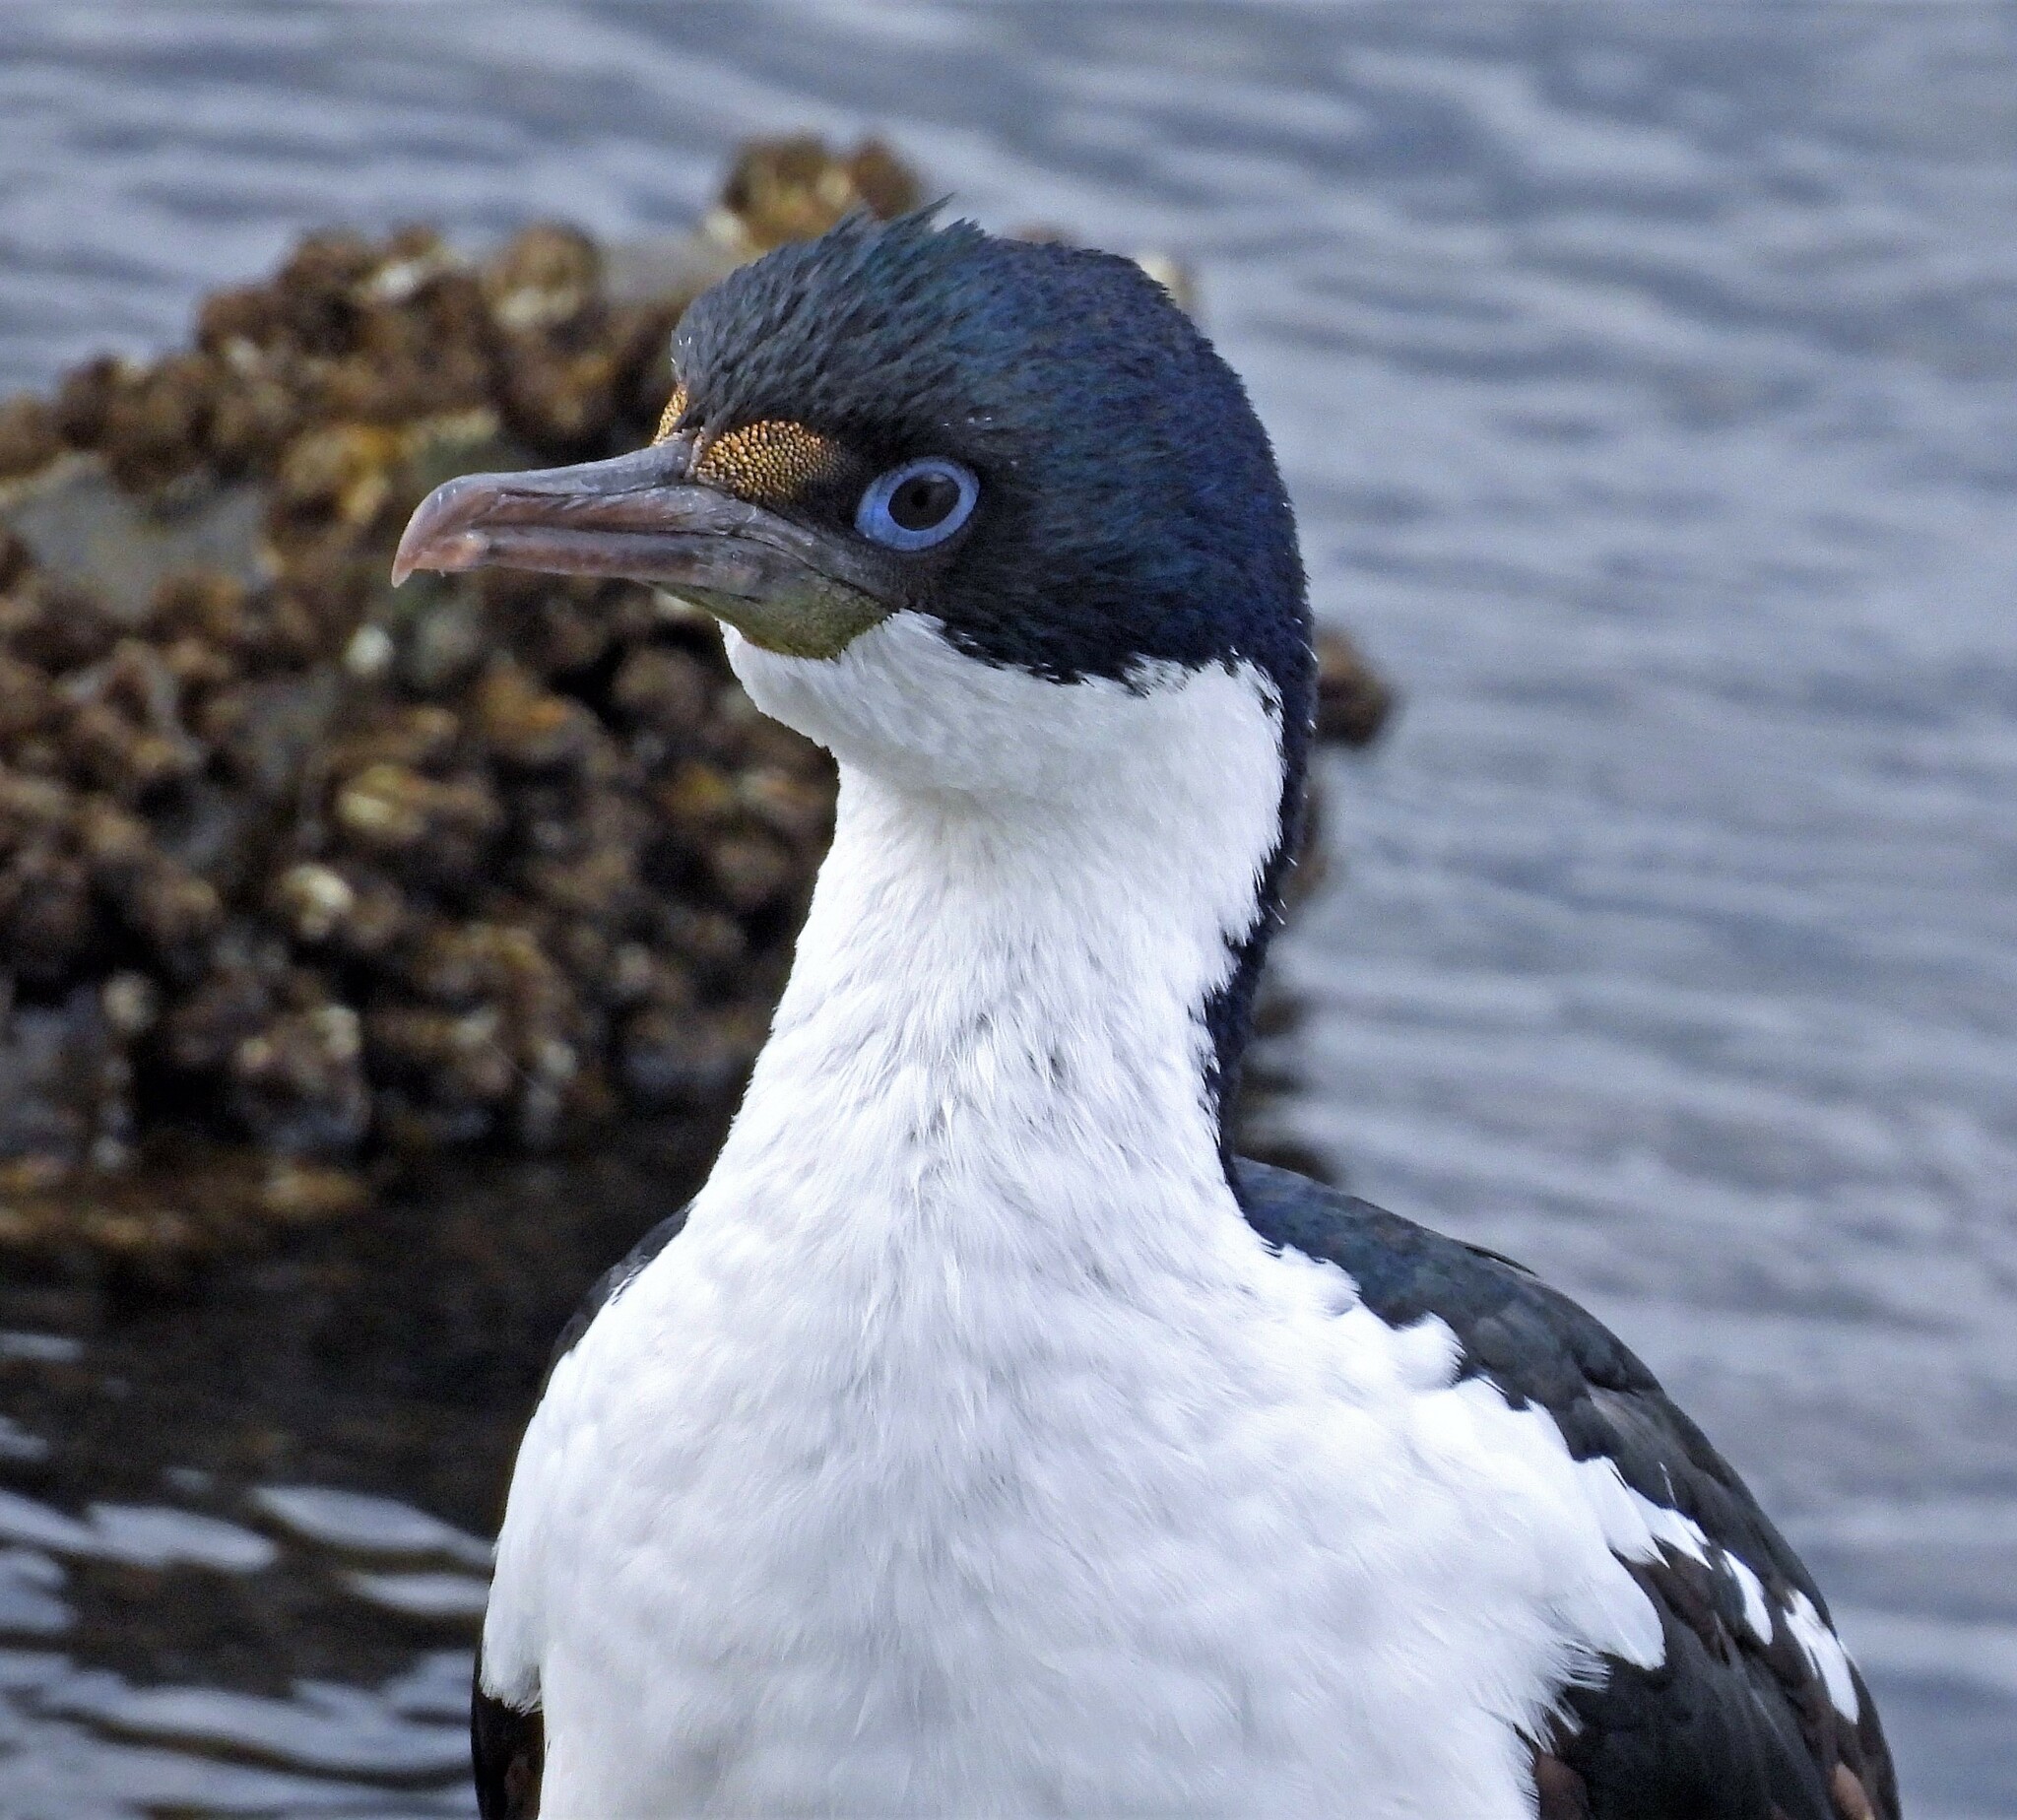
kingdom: Animalia
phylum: Chordata
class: Aves
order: Suliformes
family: Phalacrocoracidae
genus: Leucocarbo
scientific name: Leucocarbo atriceps
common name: Imperial shag
